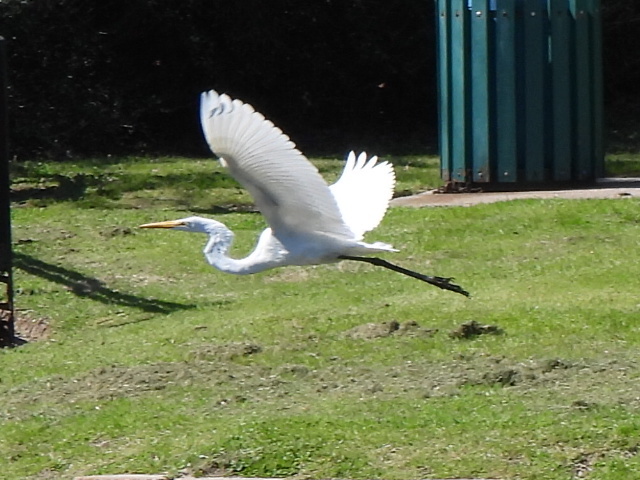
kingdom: Animalia
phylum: Chordata
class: Aves
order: Pelecaniformes
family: Ardeidae
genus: Ardea
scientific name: Ardea alba
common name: Great egret
